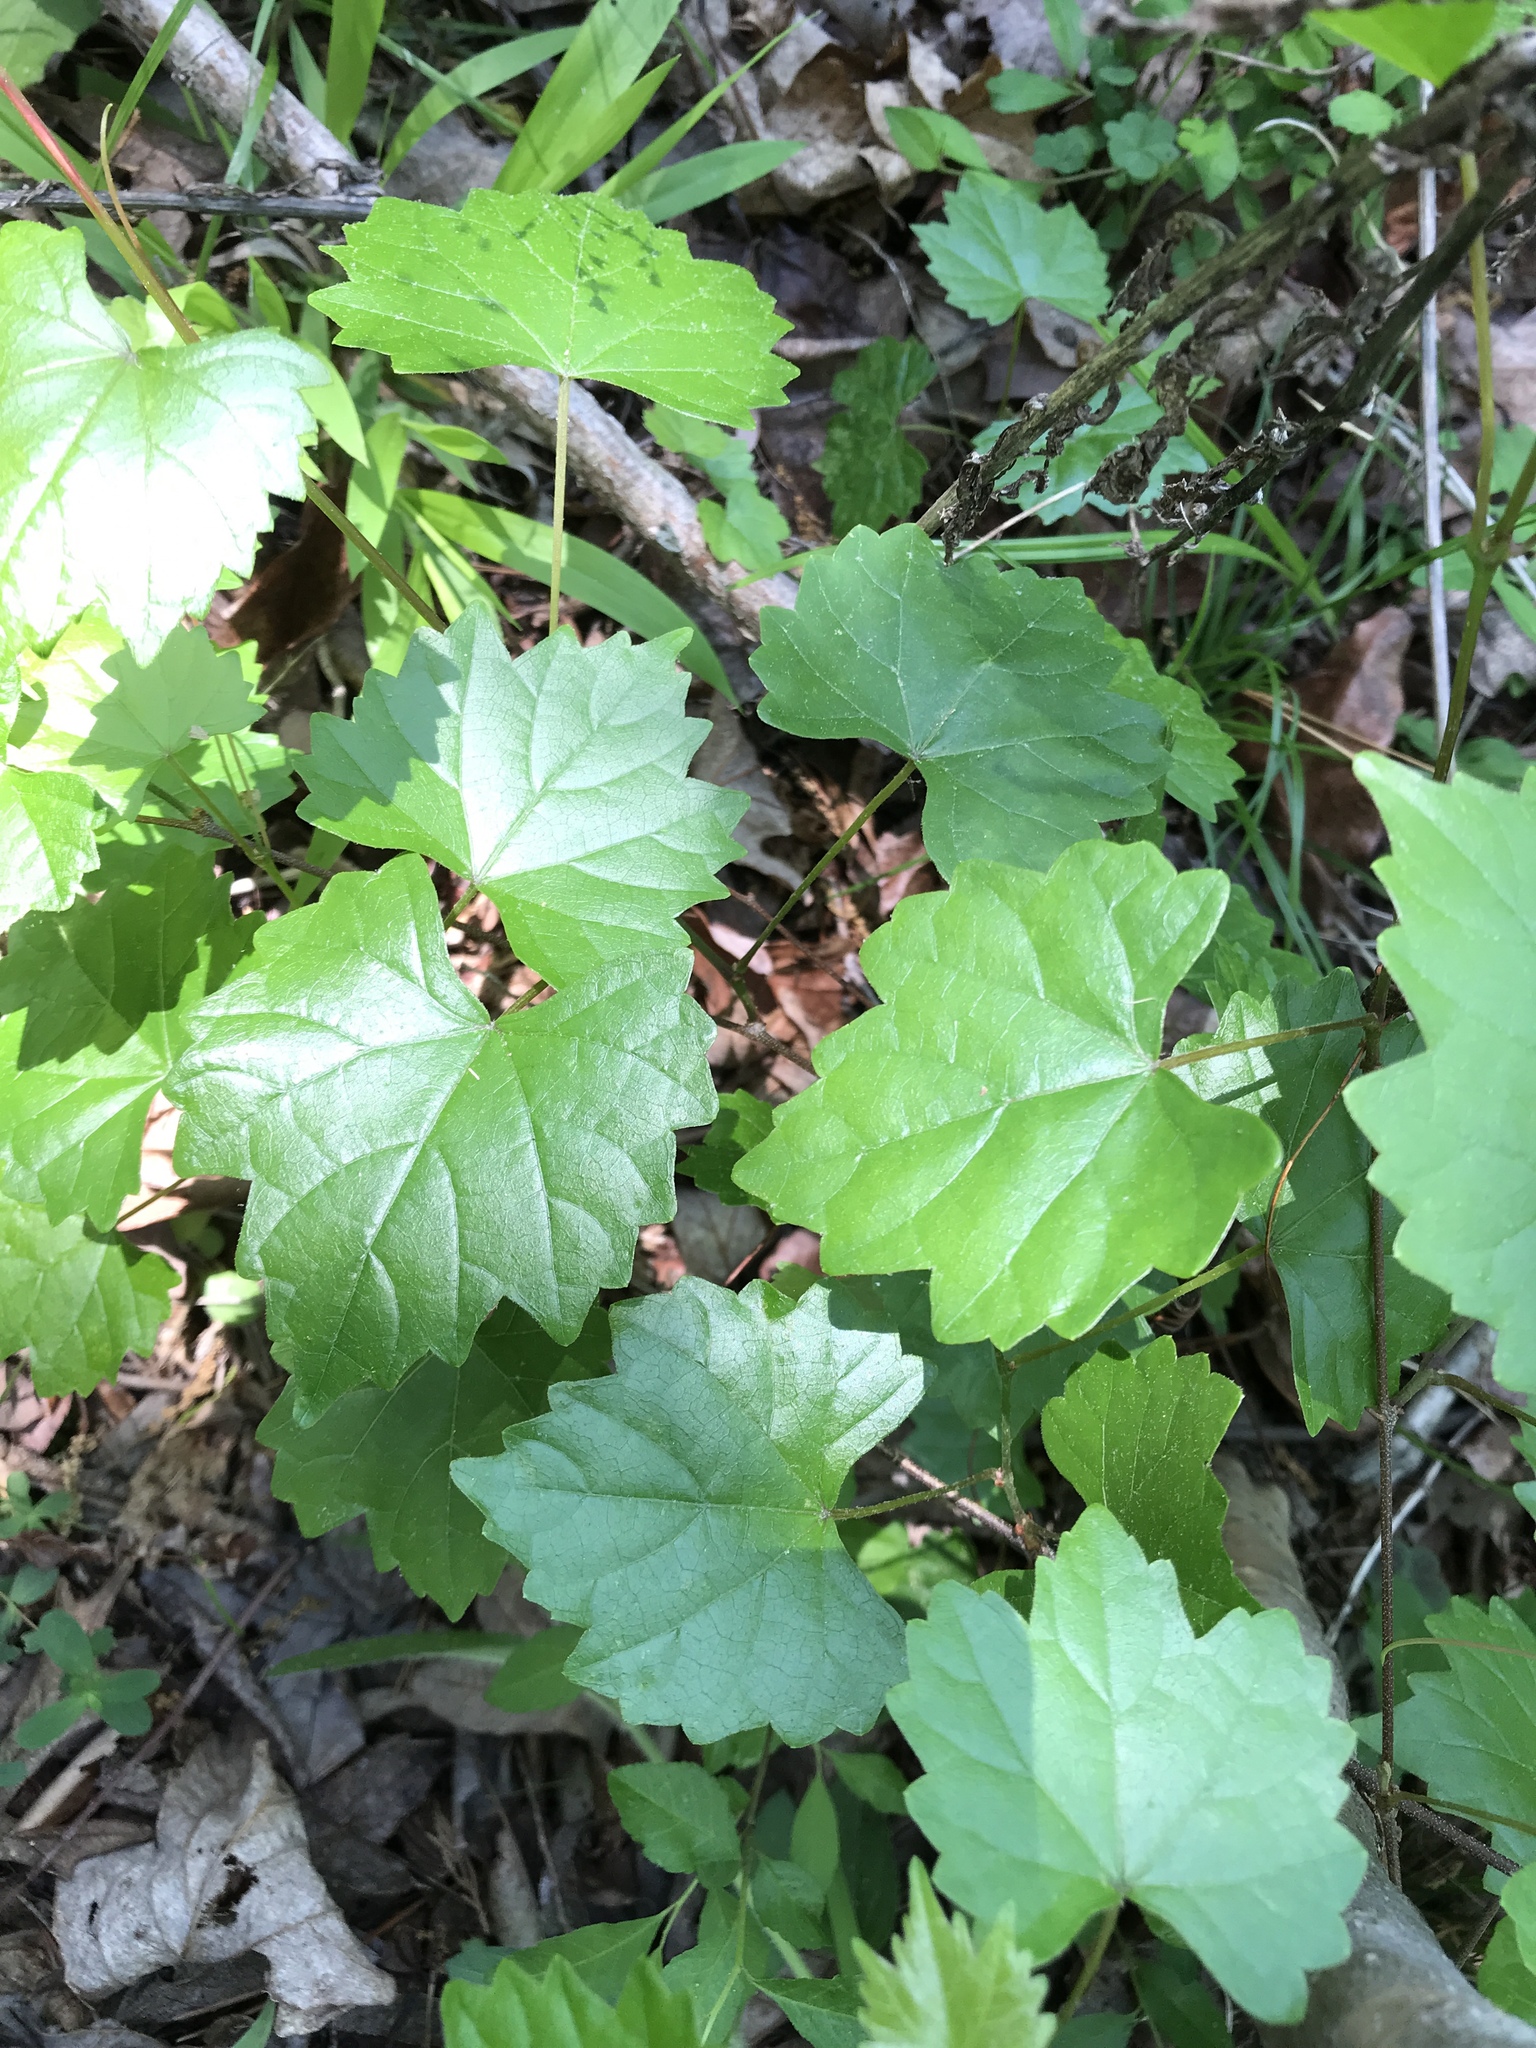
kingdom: Plantae
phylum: Tracheophyta
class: Magnoliopsida
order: Vitales
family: Vitaceae
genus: Vitis
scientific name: Vitis rotundifolia
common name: Muscadine grape
